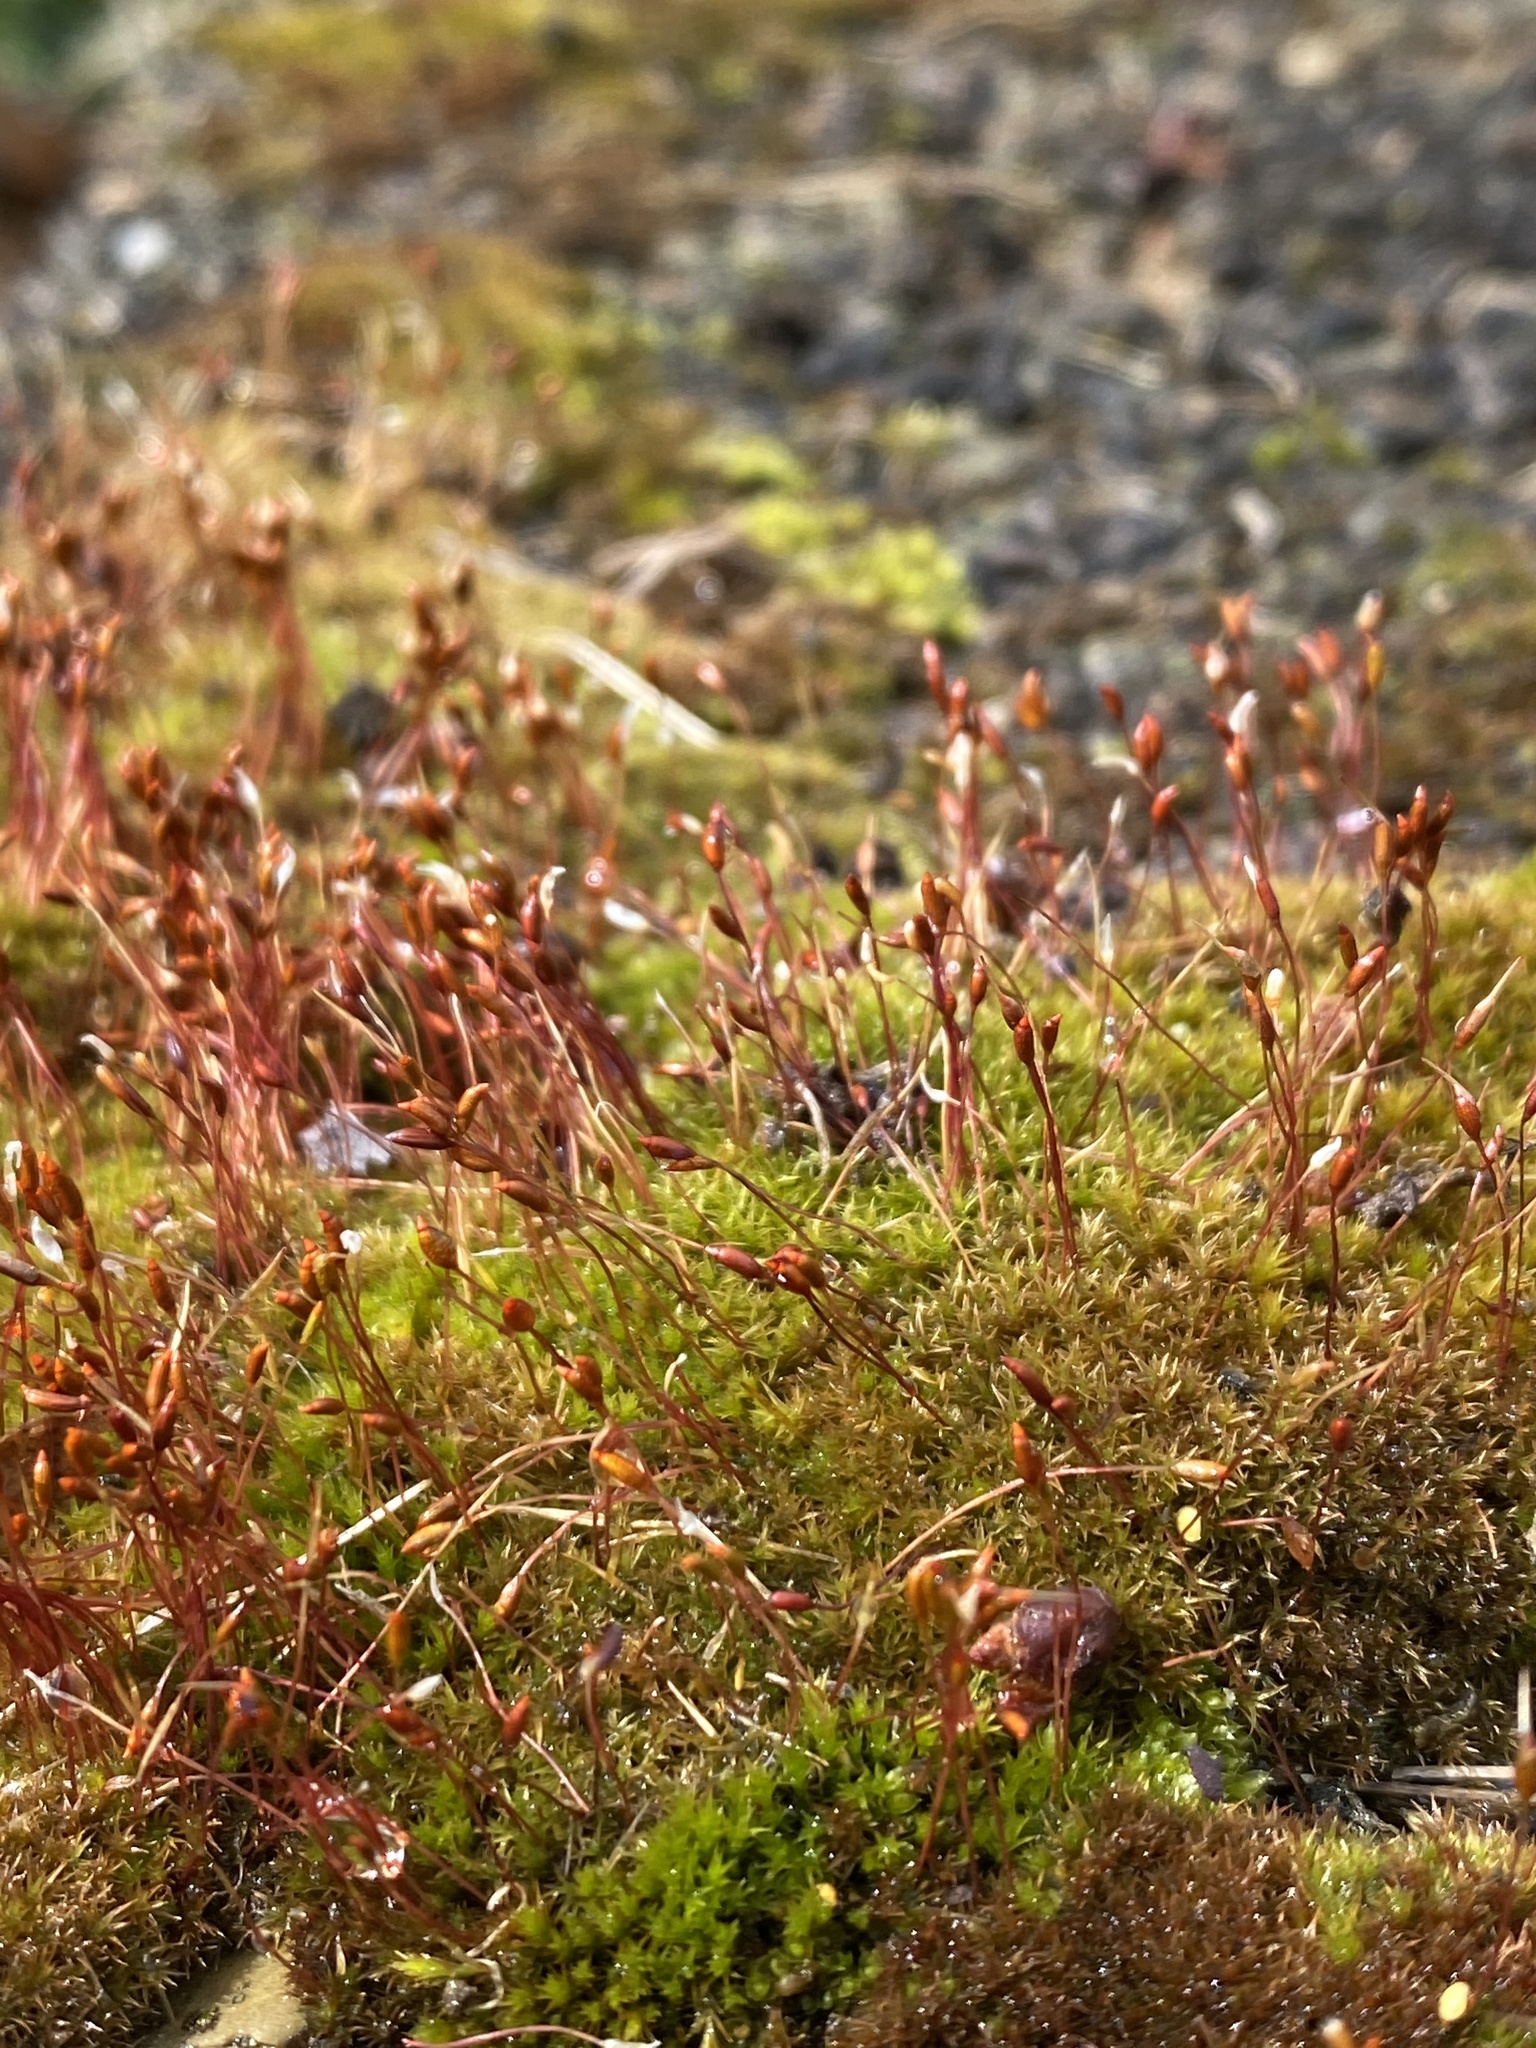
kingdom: Plantae
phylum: Bryophyta
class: Bryopsida
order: Dicranales
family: Ditrichaceae
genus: Ceratodon
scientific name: Ceratodon purpureus
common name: Redshank
